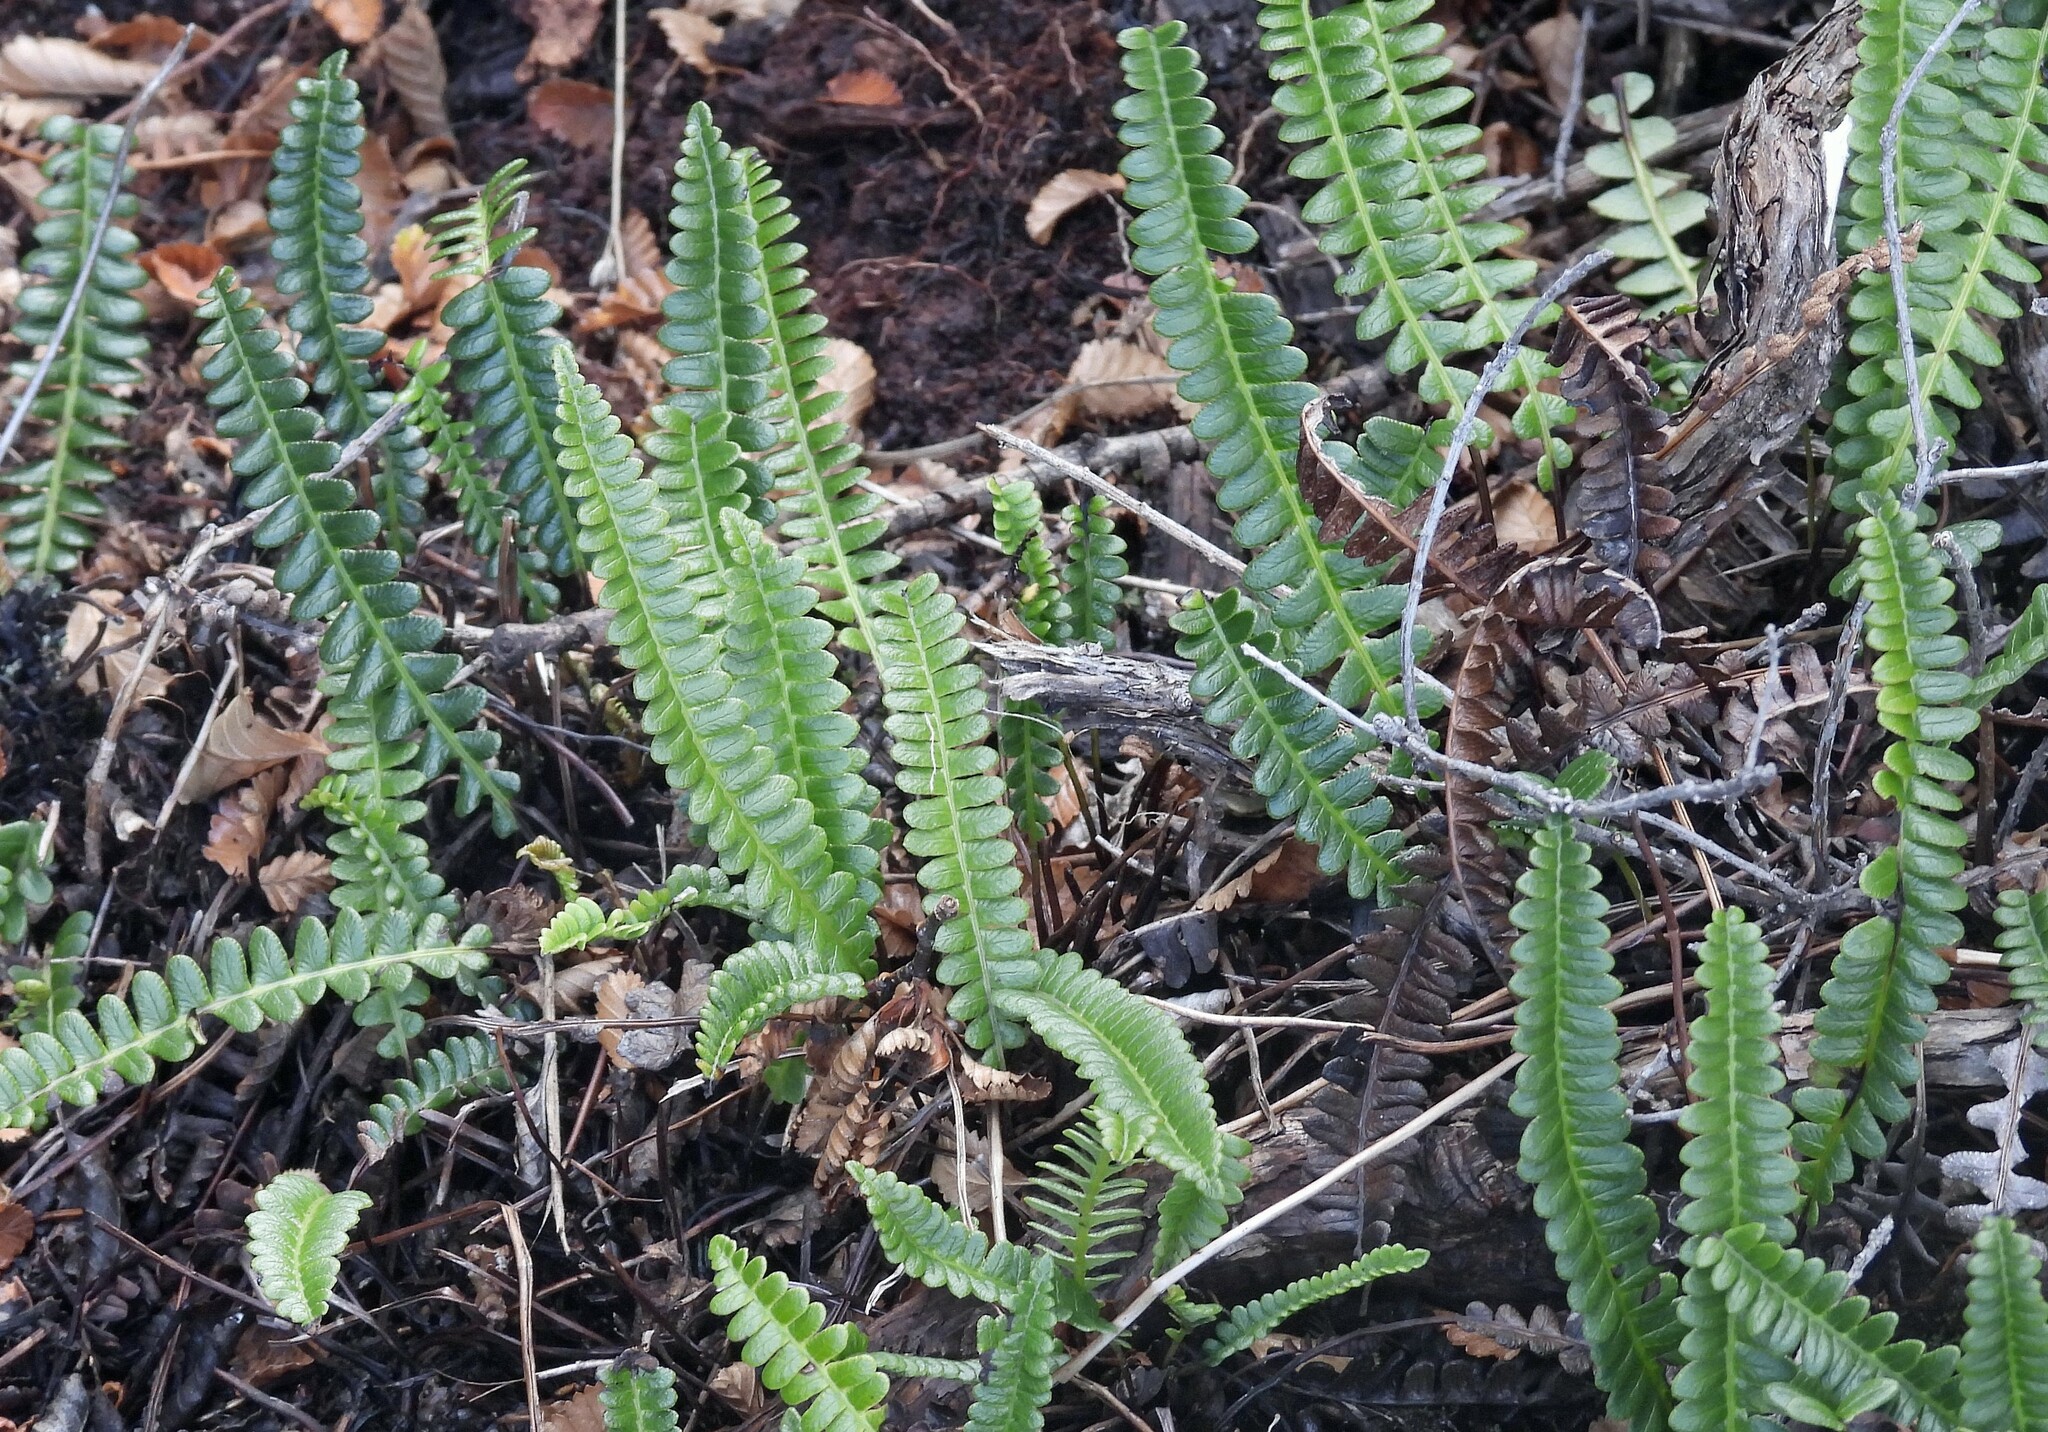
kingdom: Plantae
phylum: Tracheophyta
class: Polypodiopsida
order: Polypodiales
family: Blechnaceae
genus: Austroblechnum
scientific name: Austroblechnum penna-marina
